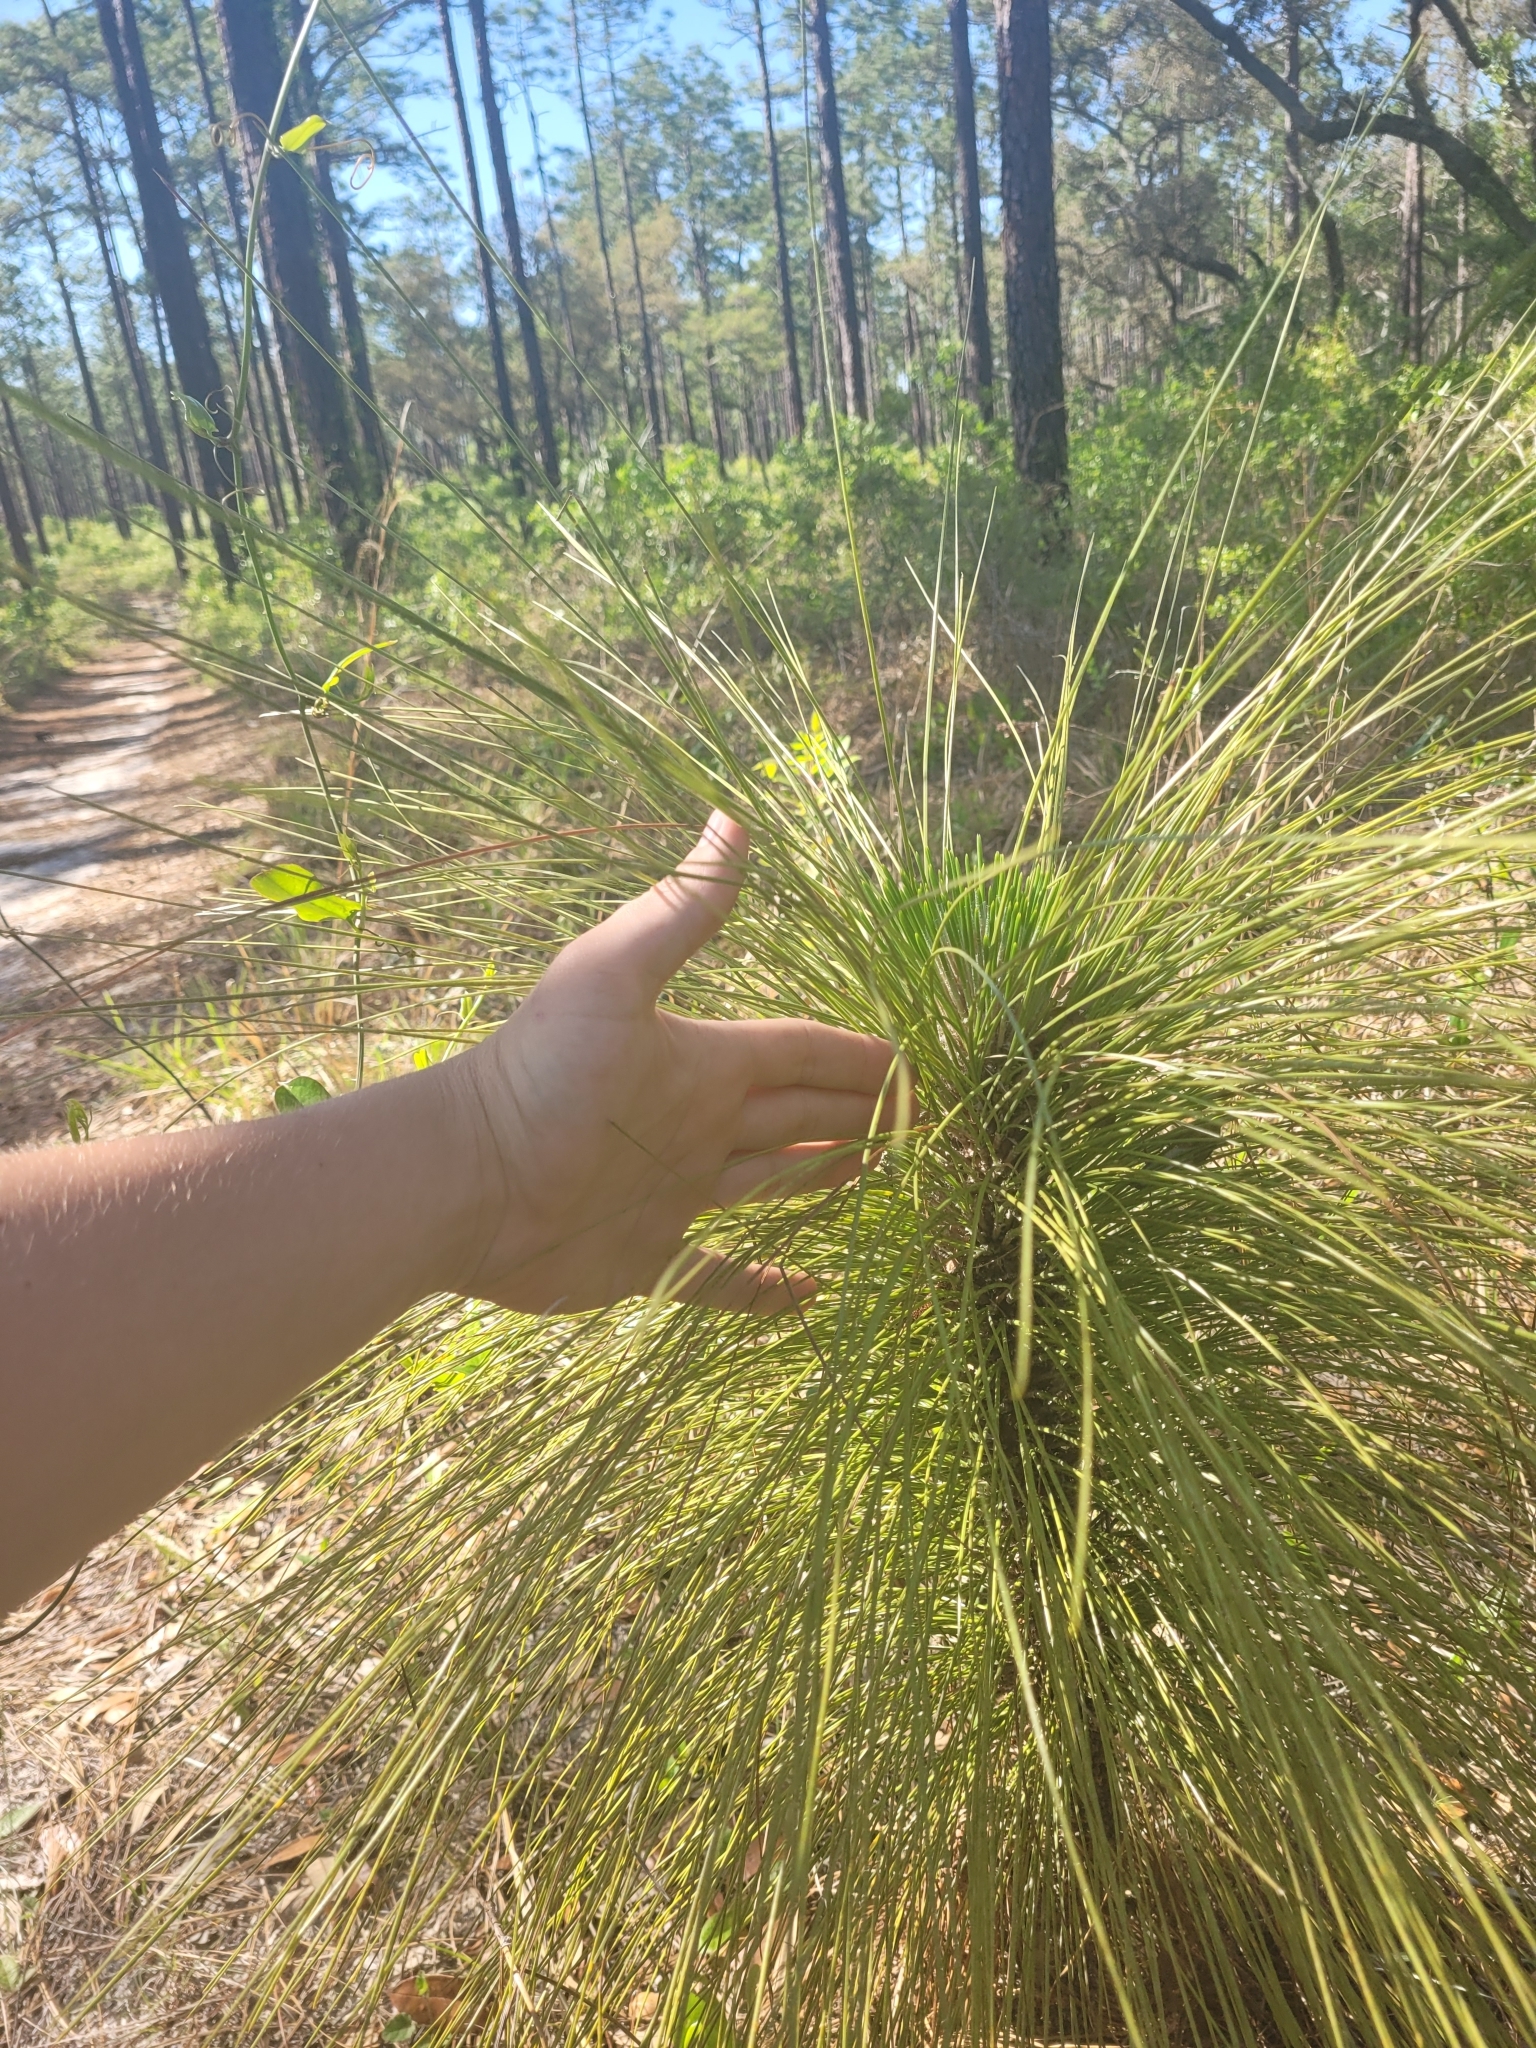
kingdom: Plantae
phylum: Tracheophyta
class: Pinopsida
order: Pinales
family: Pinaceae
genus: Pinus
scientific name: Pinus palustris
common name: Longleaf pine
